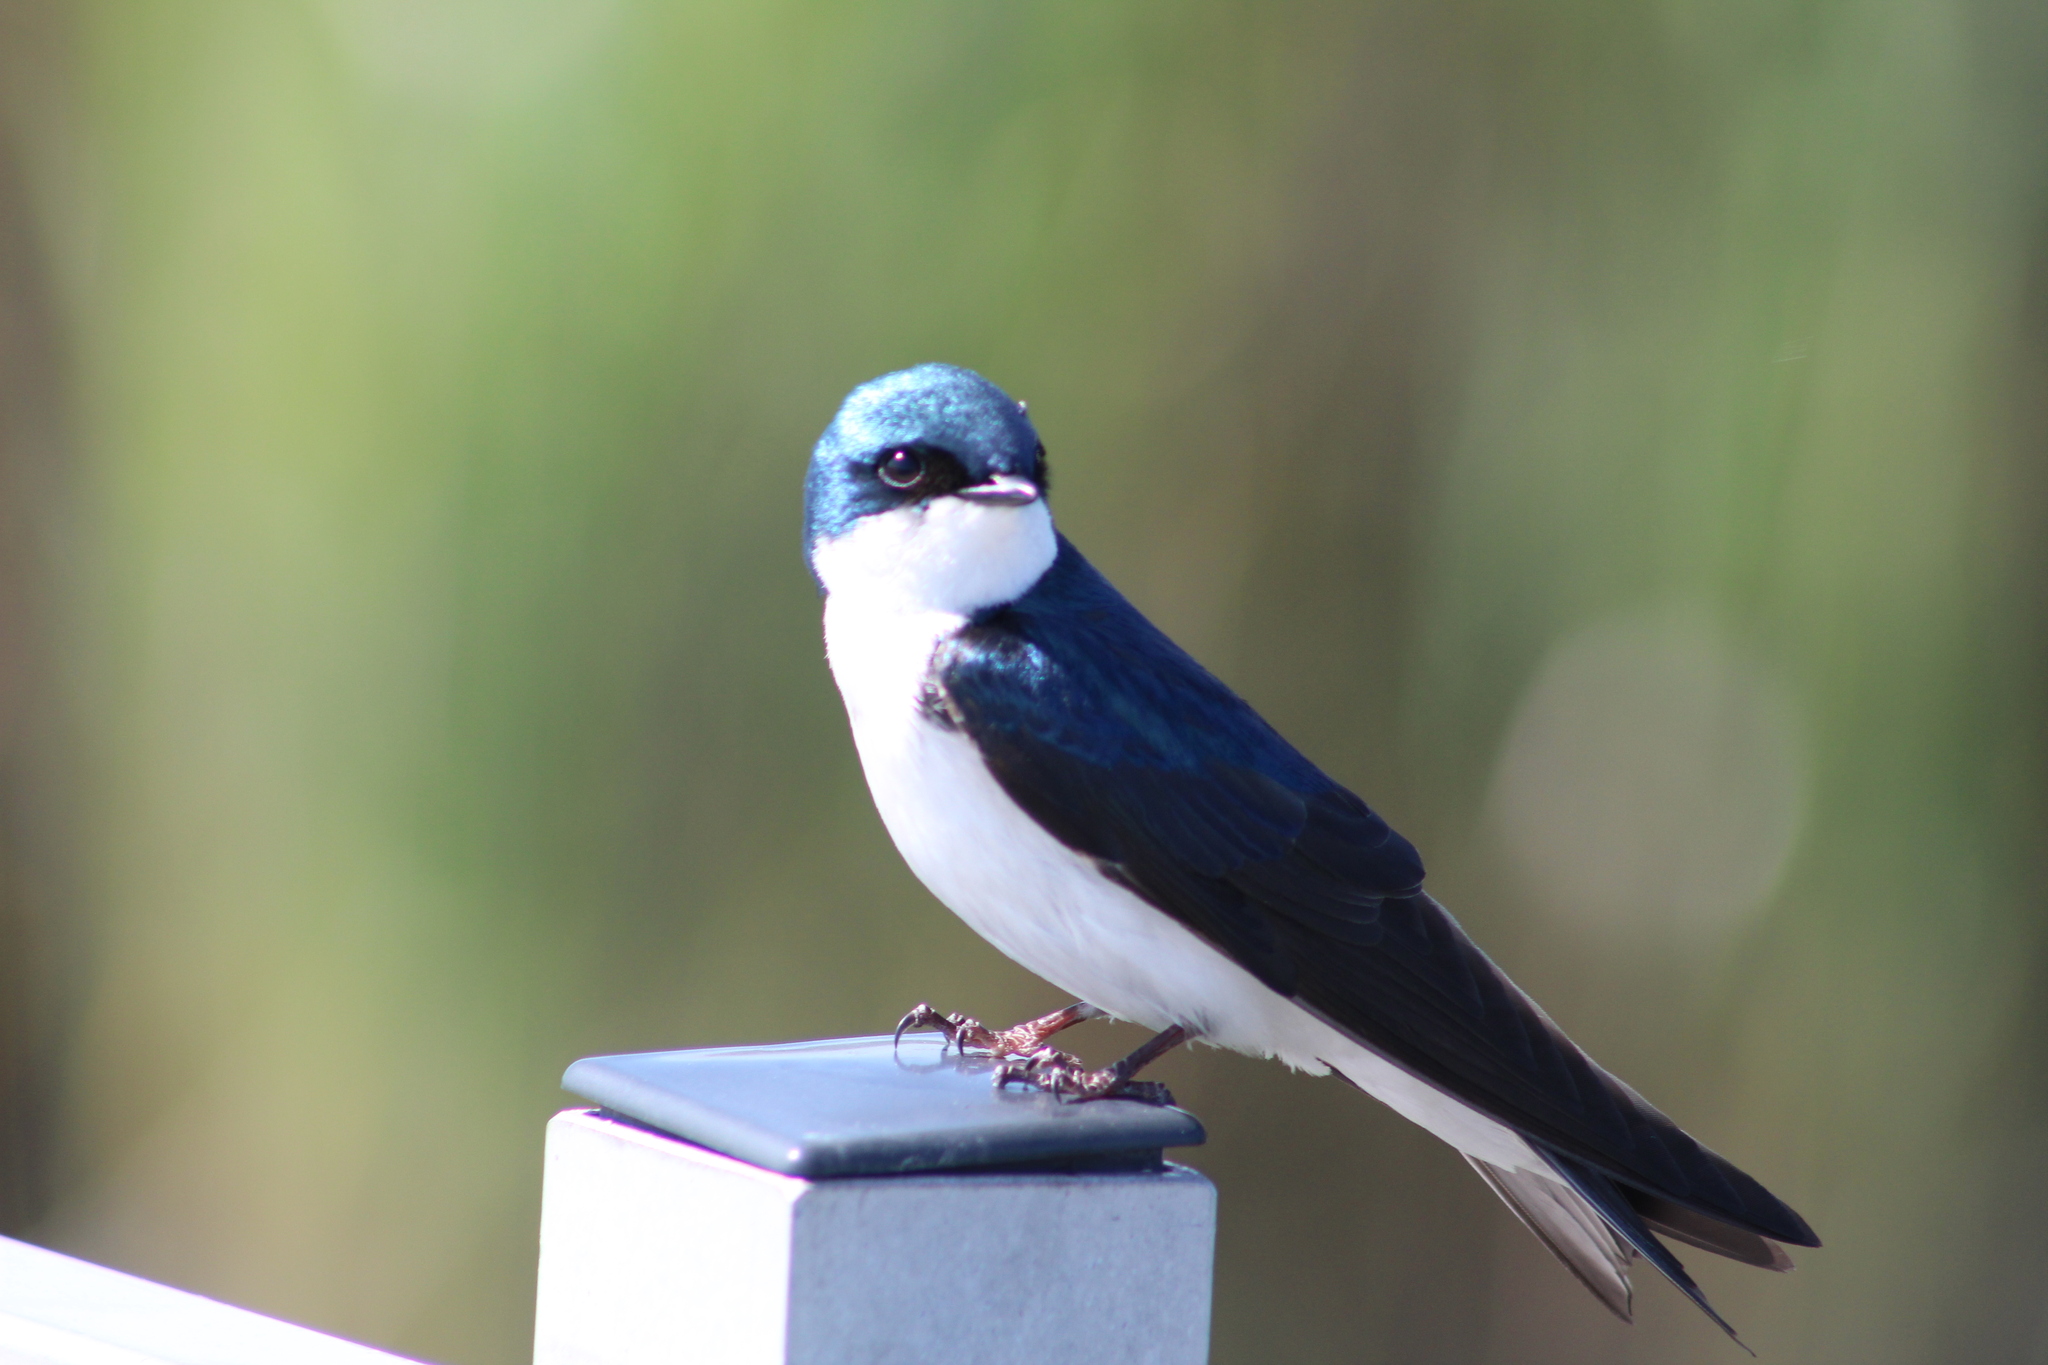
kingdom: Animalia
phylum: Chordata
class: Aves
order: Passeriformes
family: Hirundinidae
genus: Tachycineta
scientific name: Tachycineta bicolor
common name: Tree swallow
